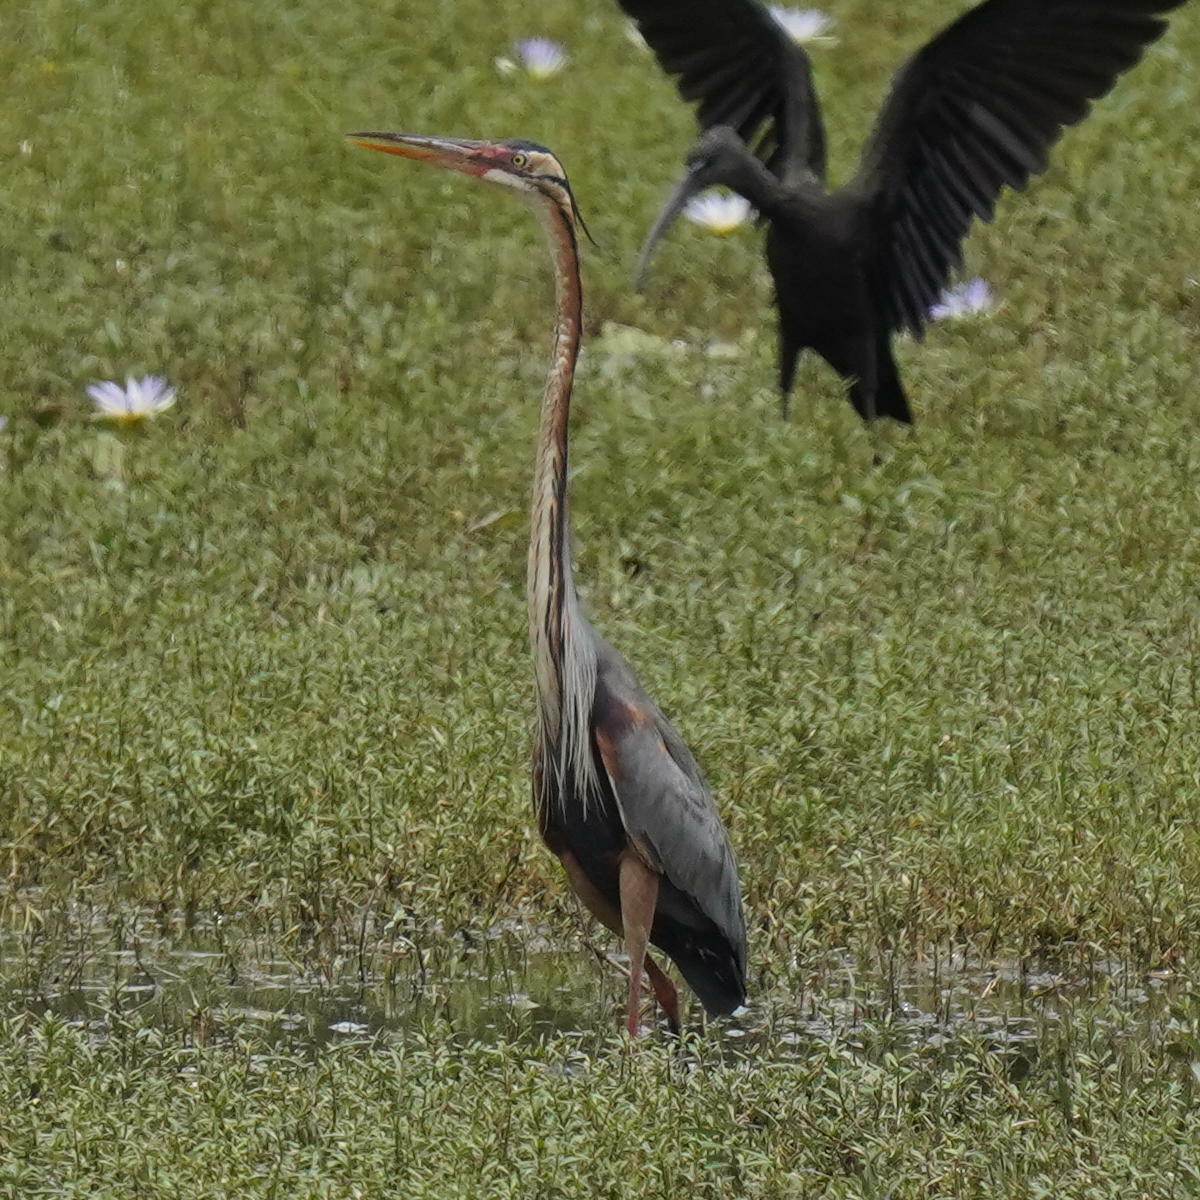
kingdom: Animalia
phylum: Chordata
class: Aves
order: Pelecaniformes
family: Ardeidae
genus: Ardea
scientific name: Ardea purpurea
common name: Purple heron
